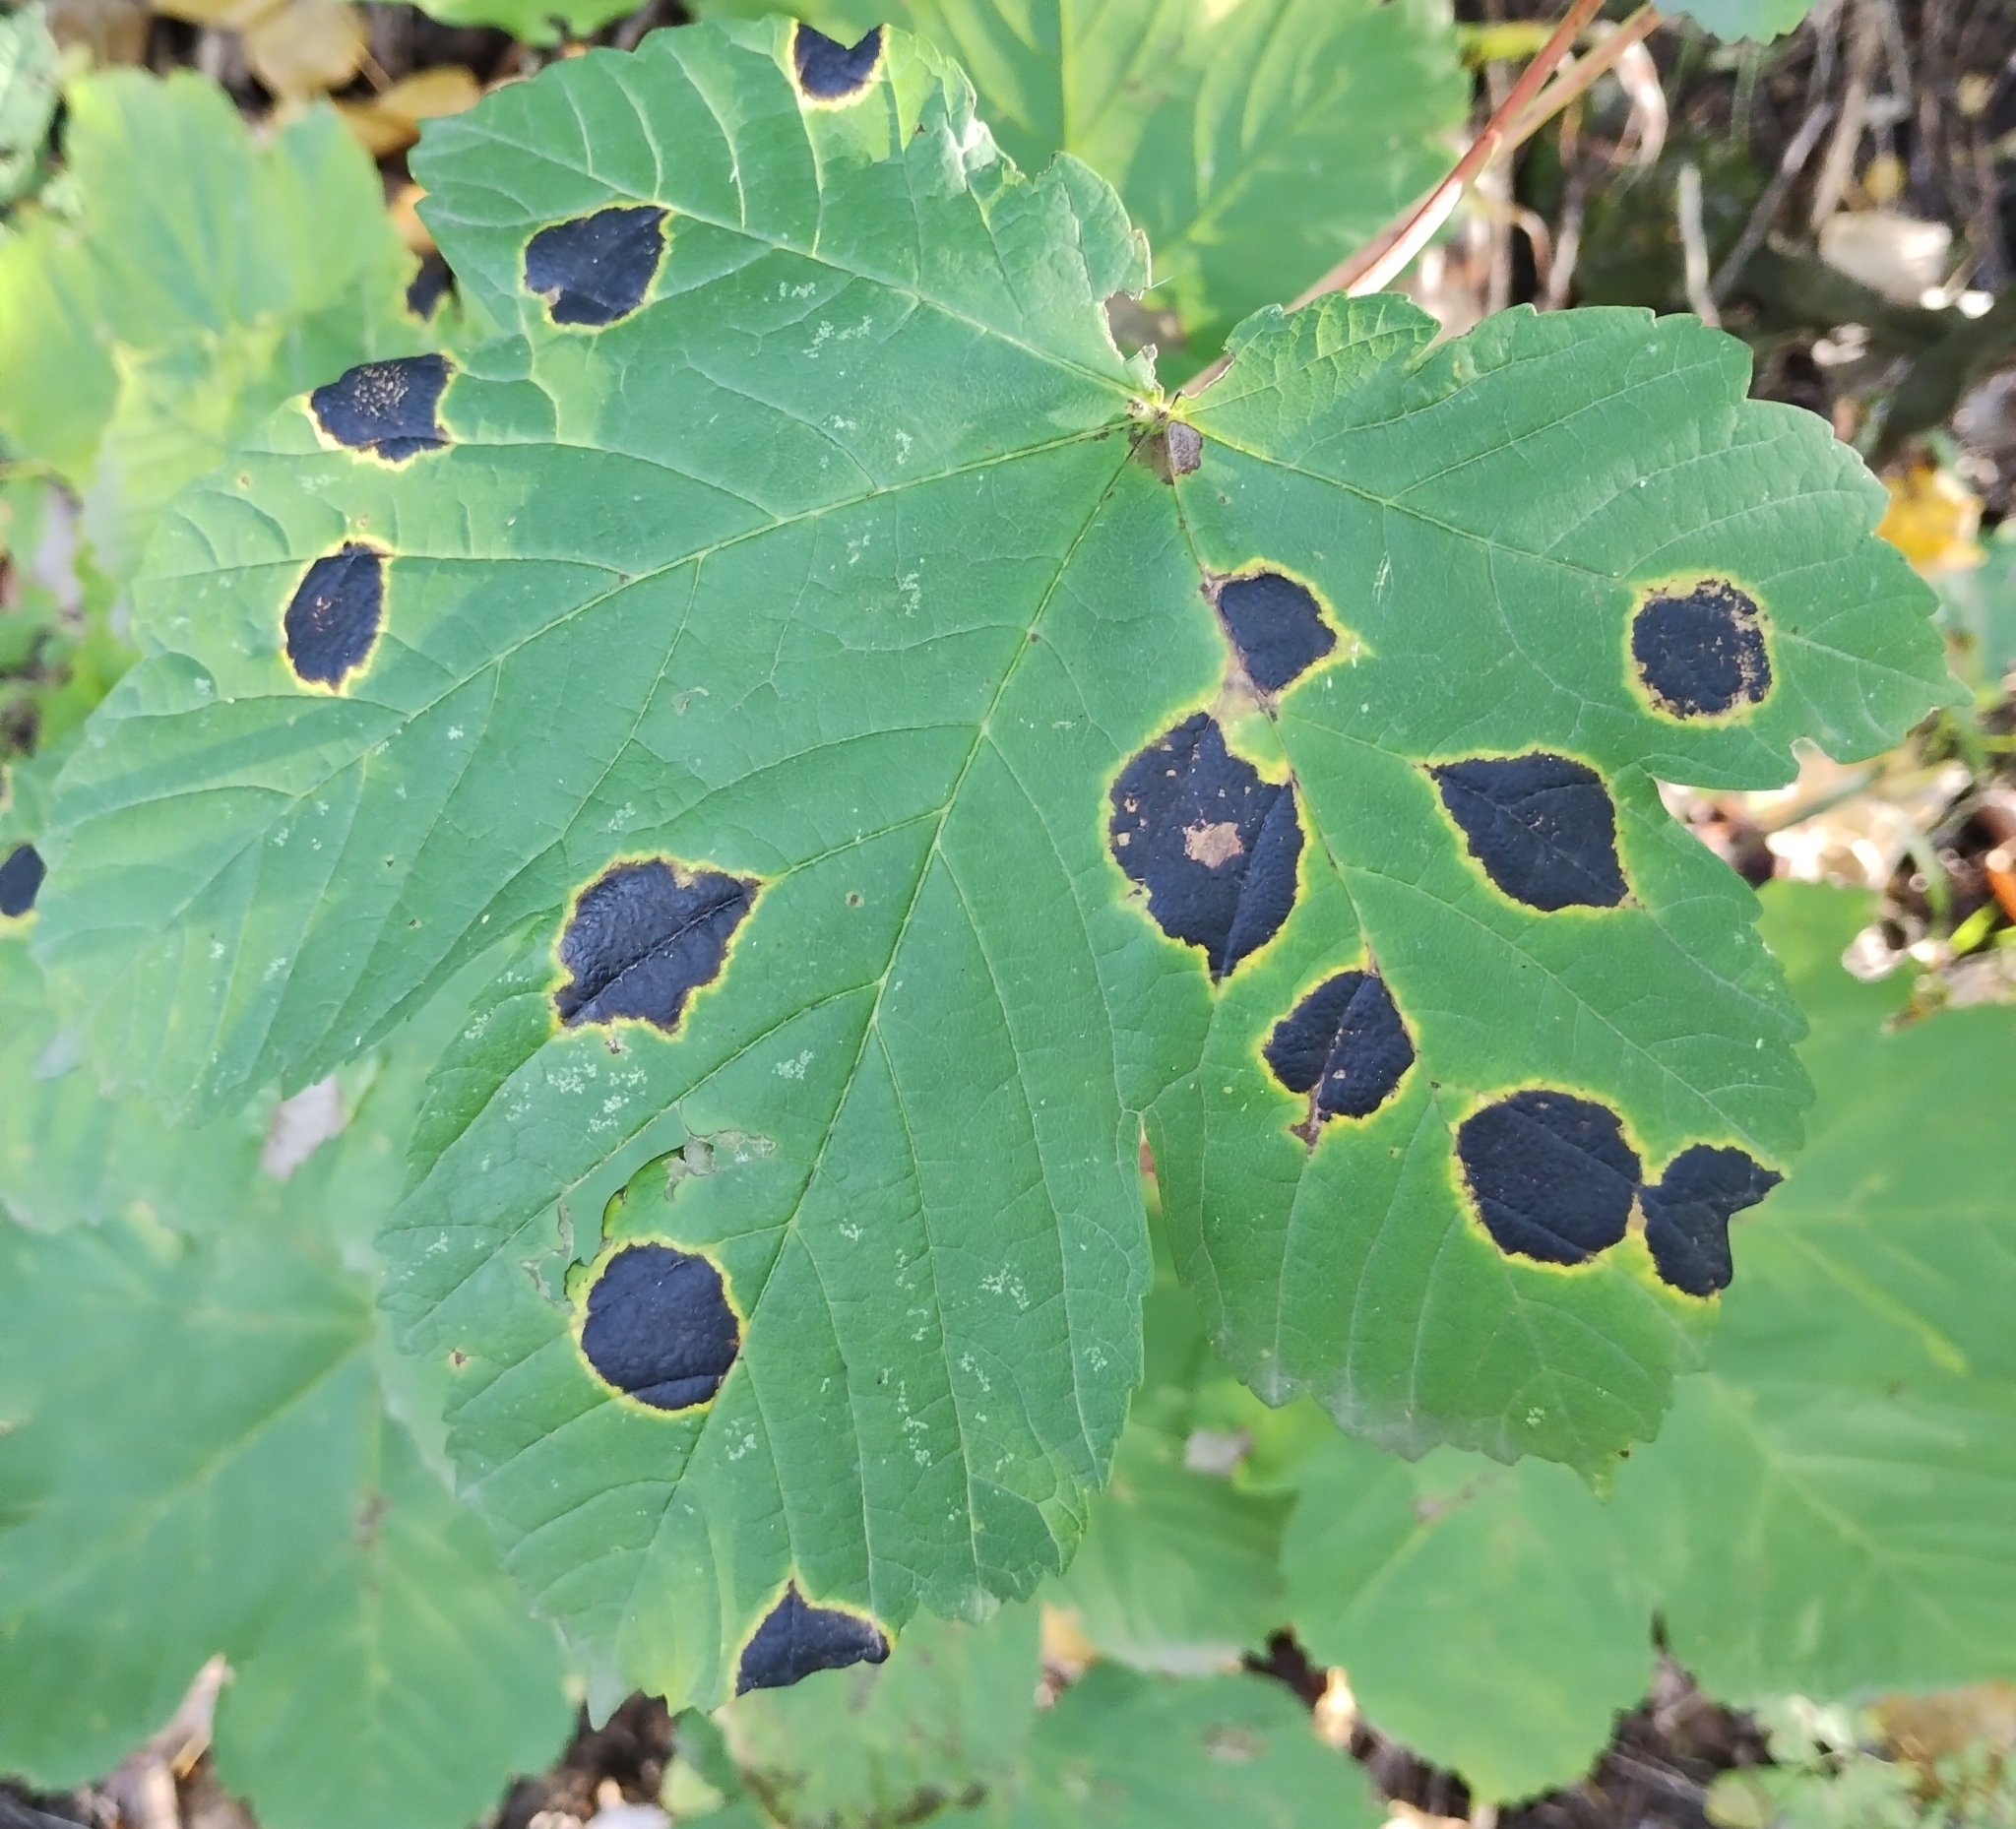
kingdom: Fungi
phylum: Ascomycota
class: Leotiomycetes
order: Rhytismatales
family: Rhytismataceae
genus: Rhytisma
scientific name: Rhytisma acerinum
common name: European tar spot
